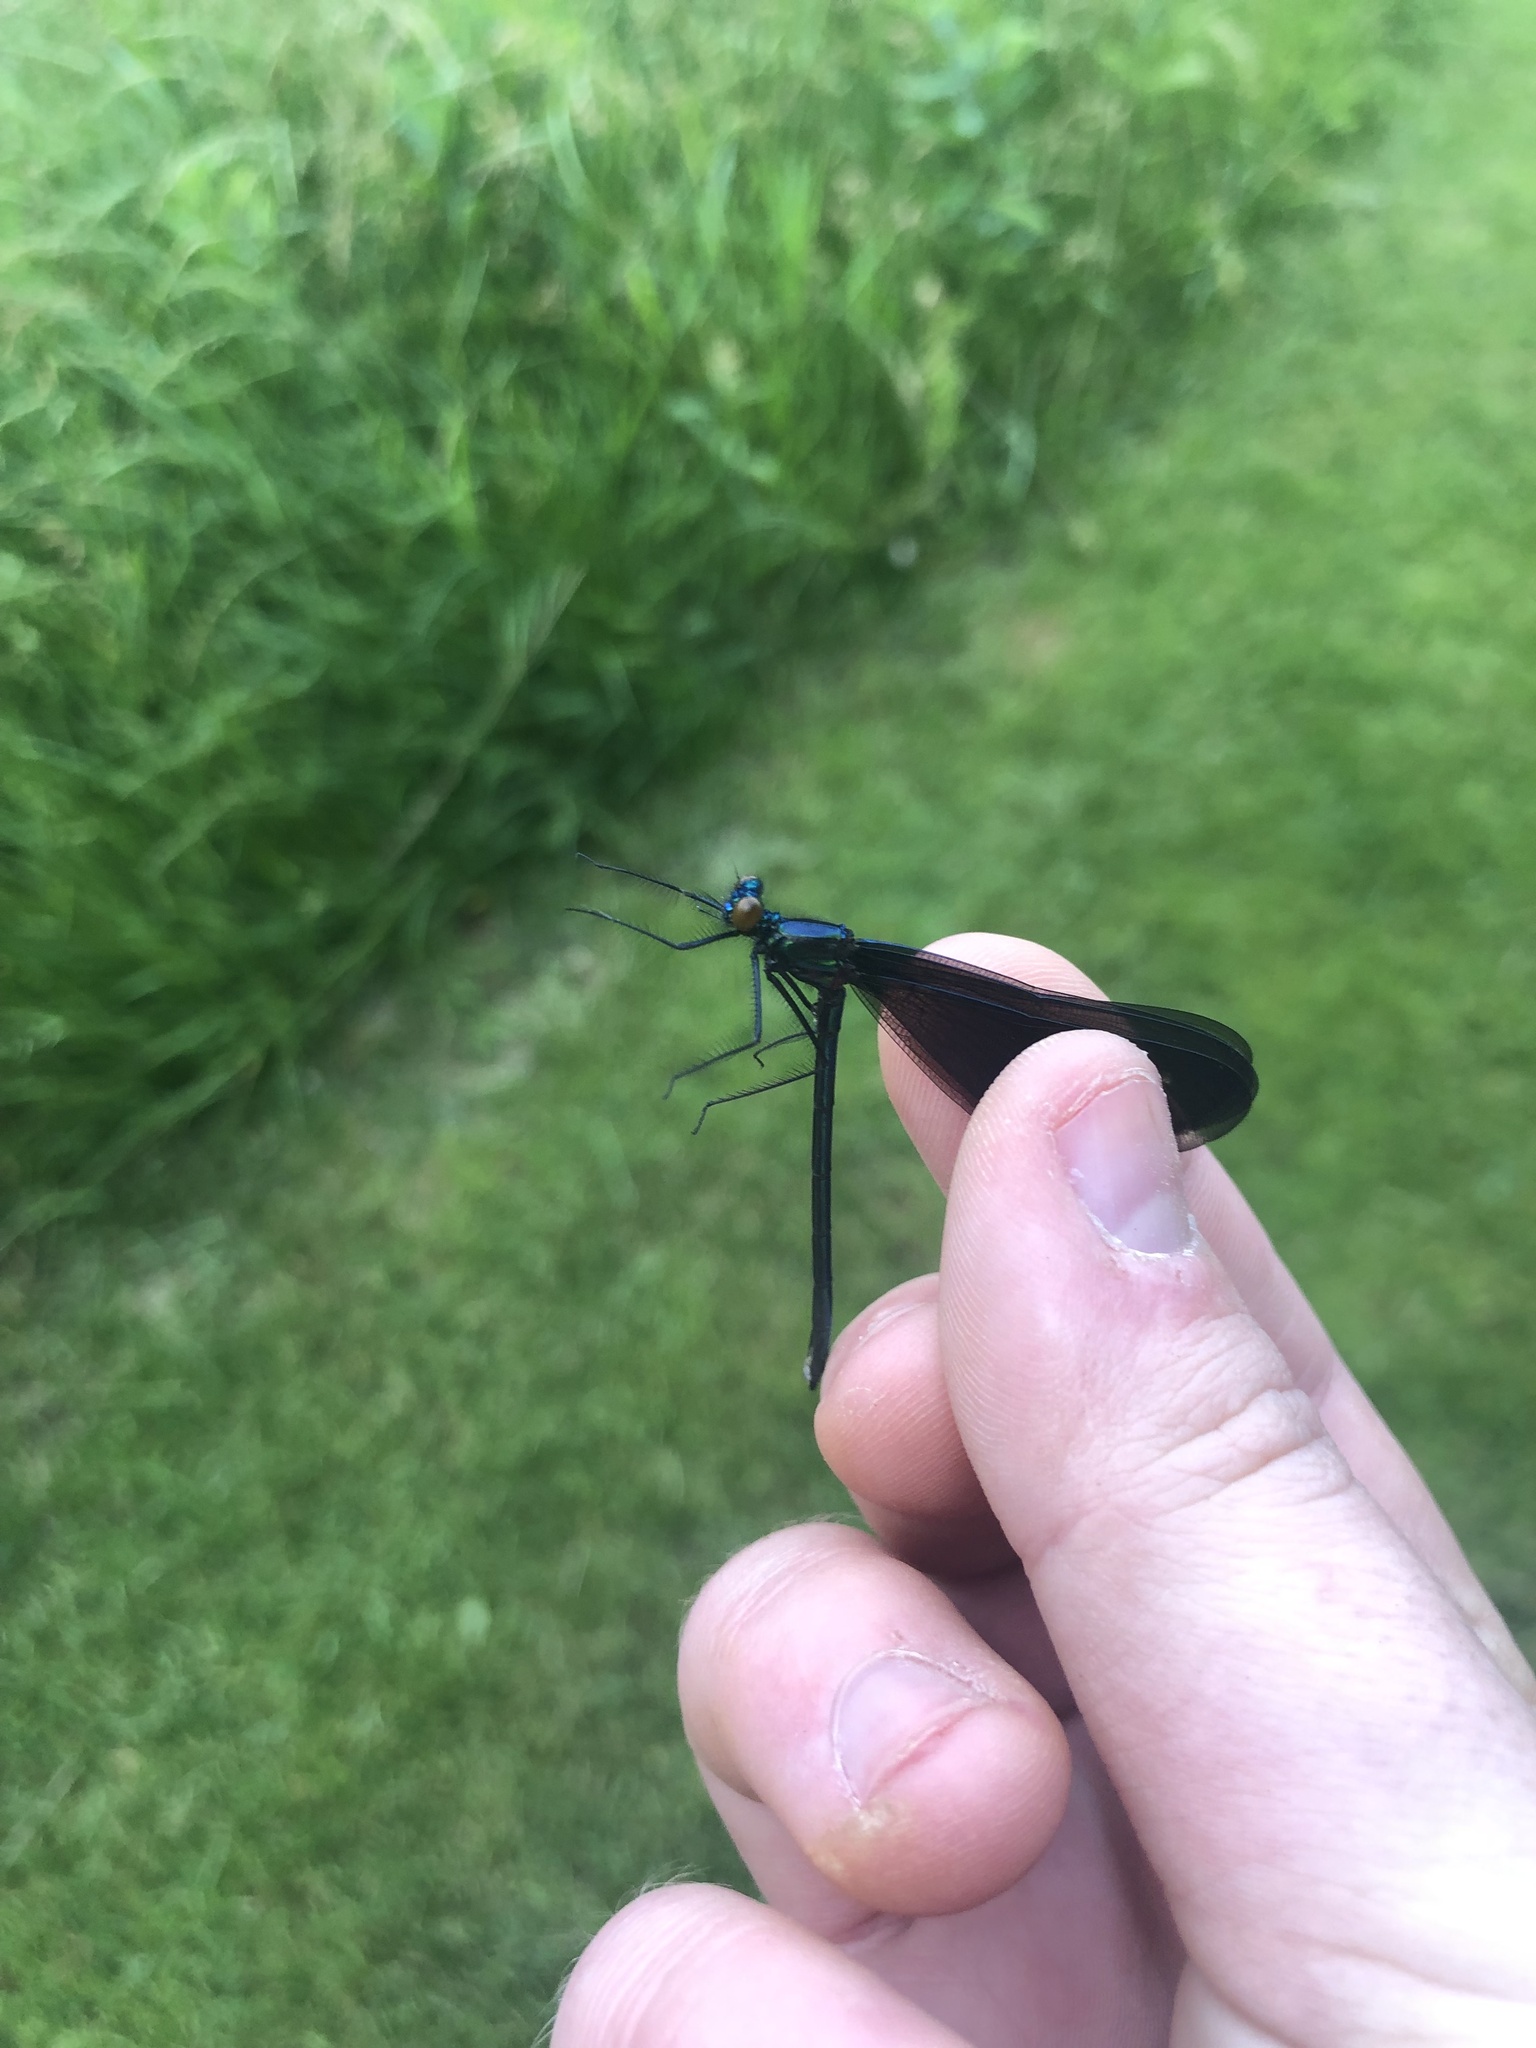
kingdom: Animalia
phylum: Arthropoda
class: Insecta
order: Odonata
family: Calopterygidae
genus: Calopteryx
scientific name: Calopteryx maculata
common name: Ebony jewelwing
